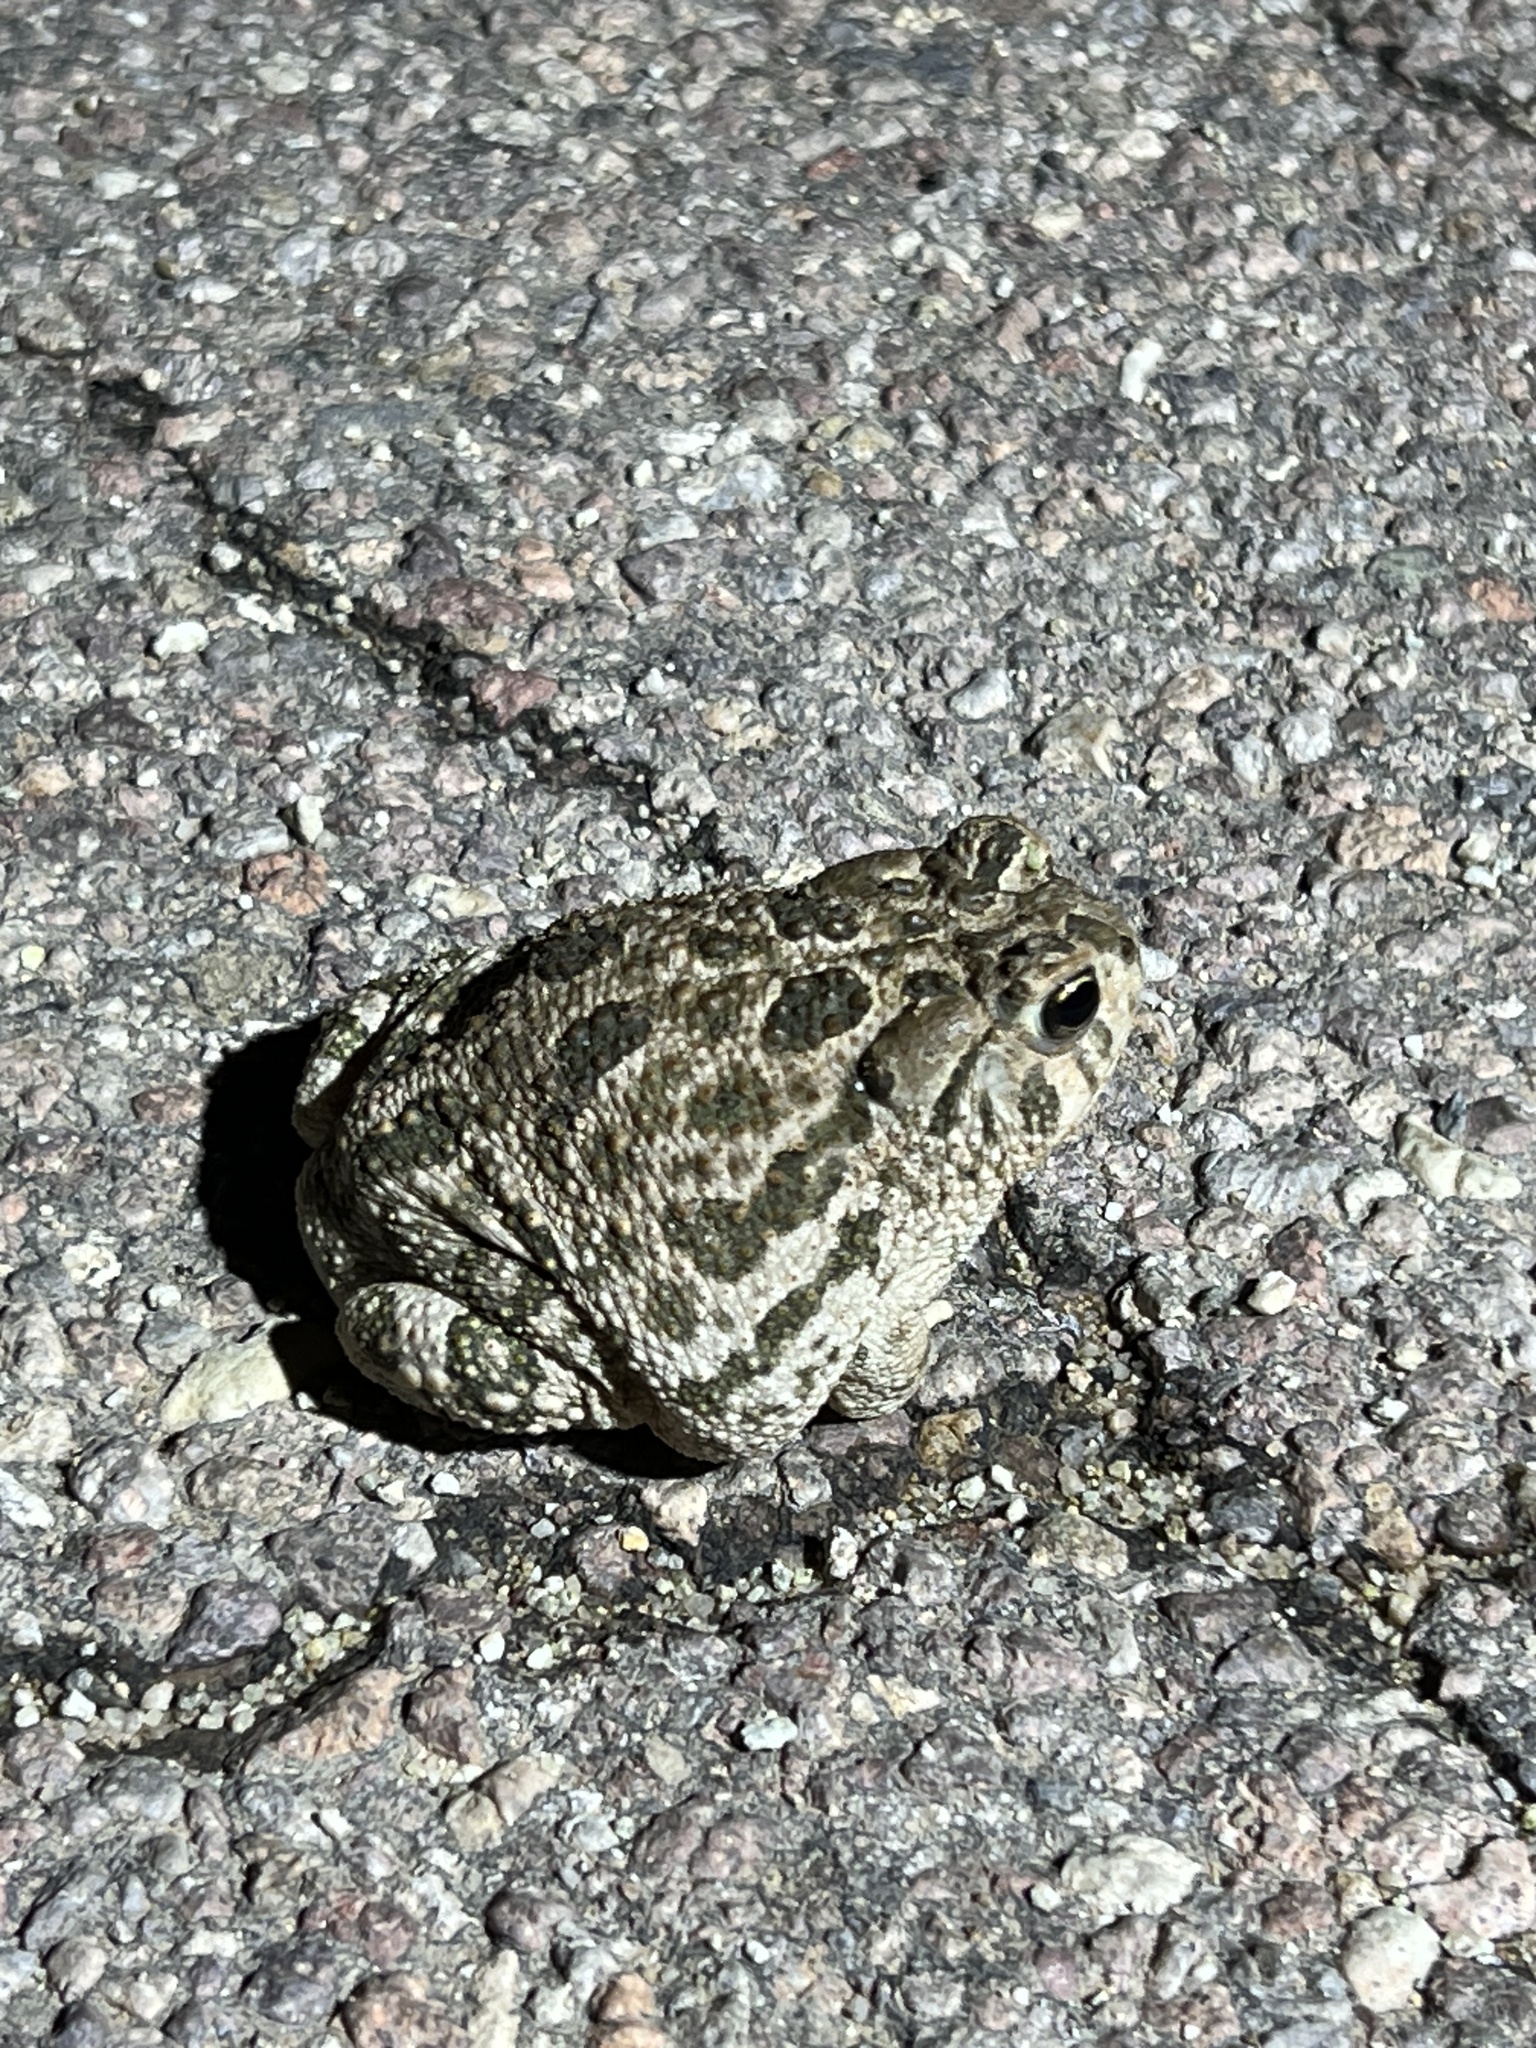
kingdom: Animalia
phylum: Chordata
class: Amphibia
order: Anura
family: Bufonidae
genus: Anaxyrus
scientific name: Anaxyrus cognatus
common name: Great plains toad
